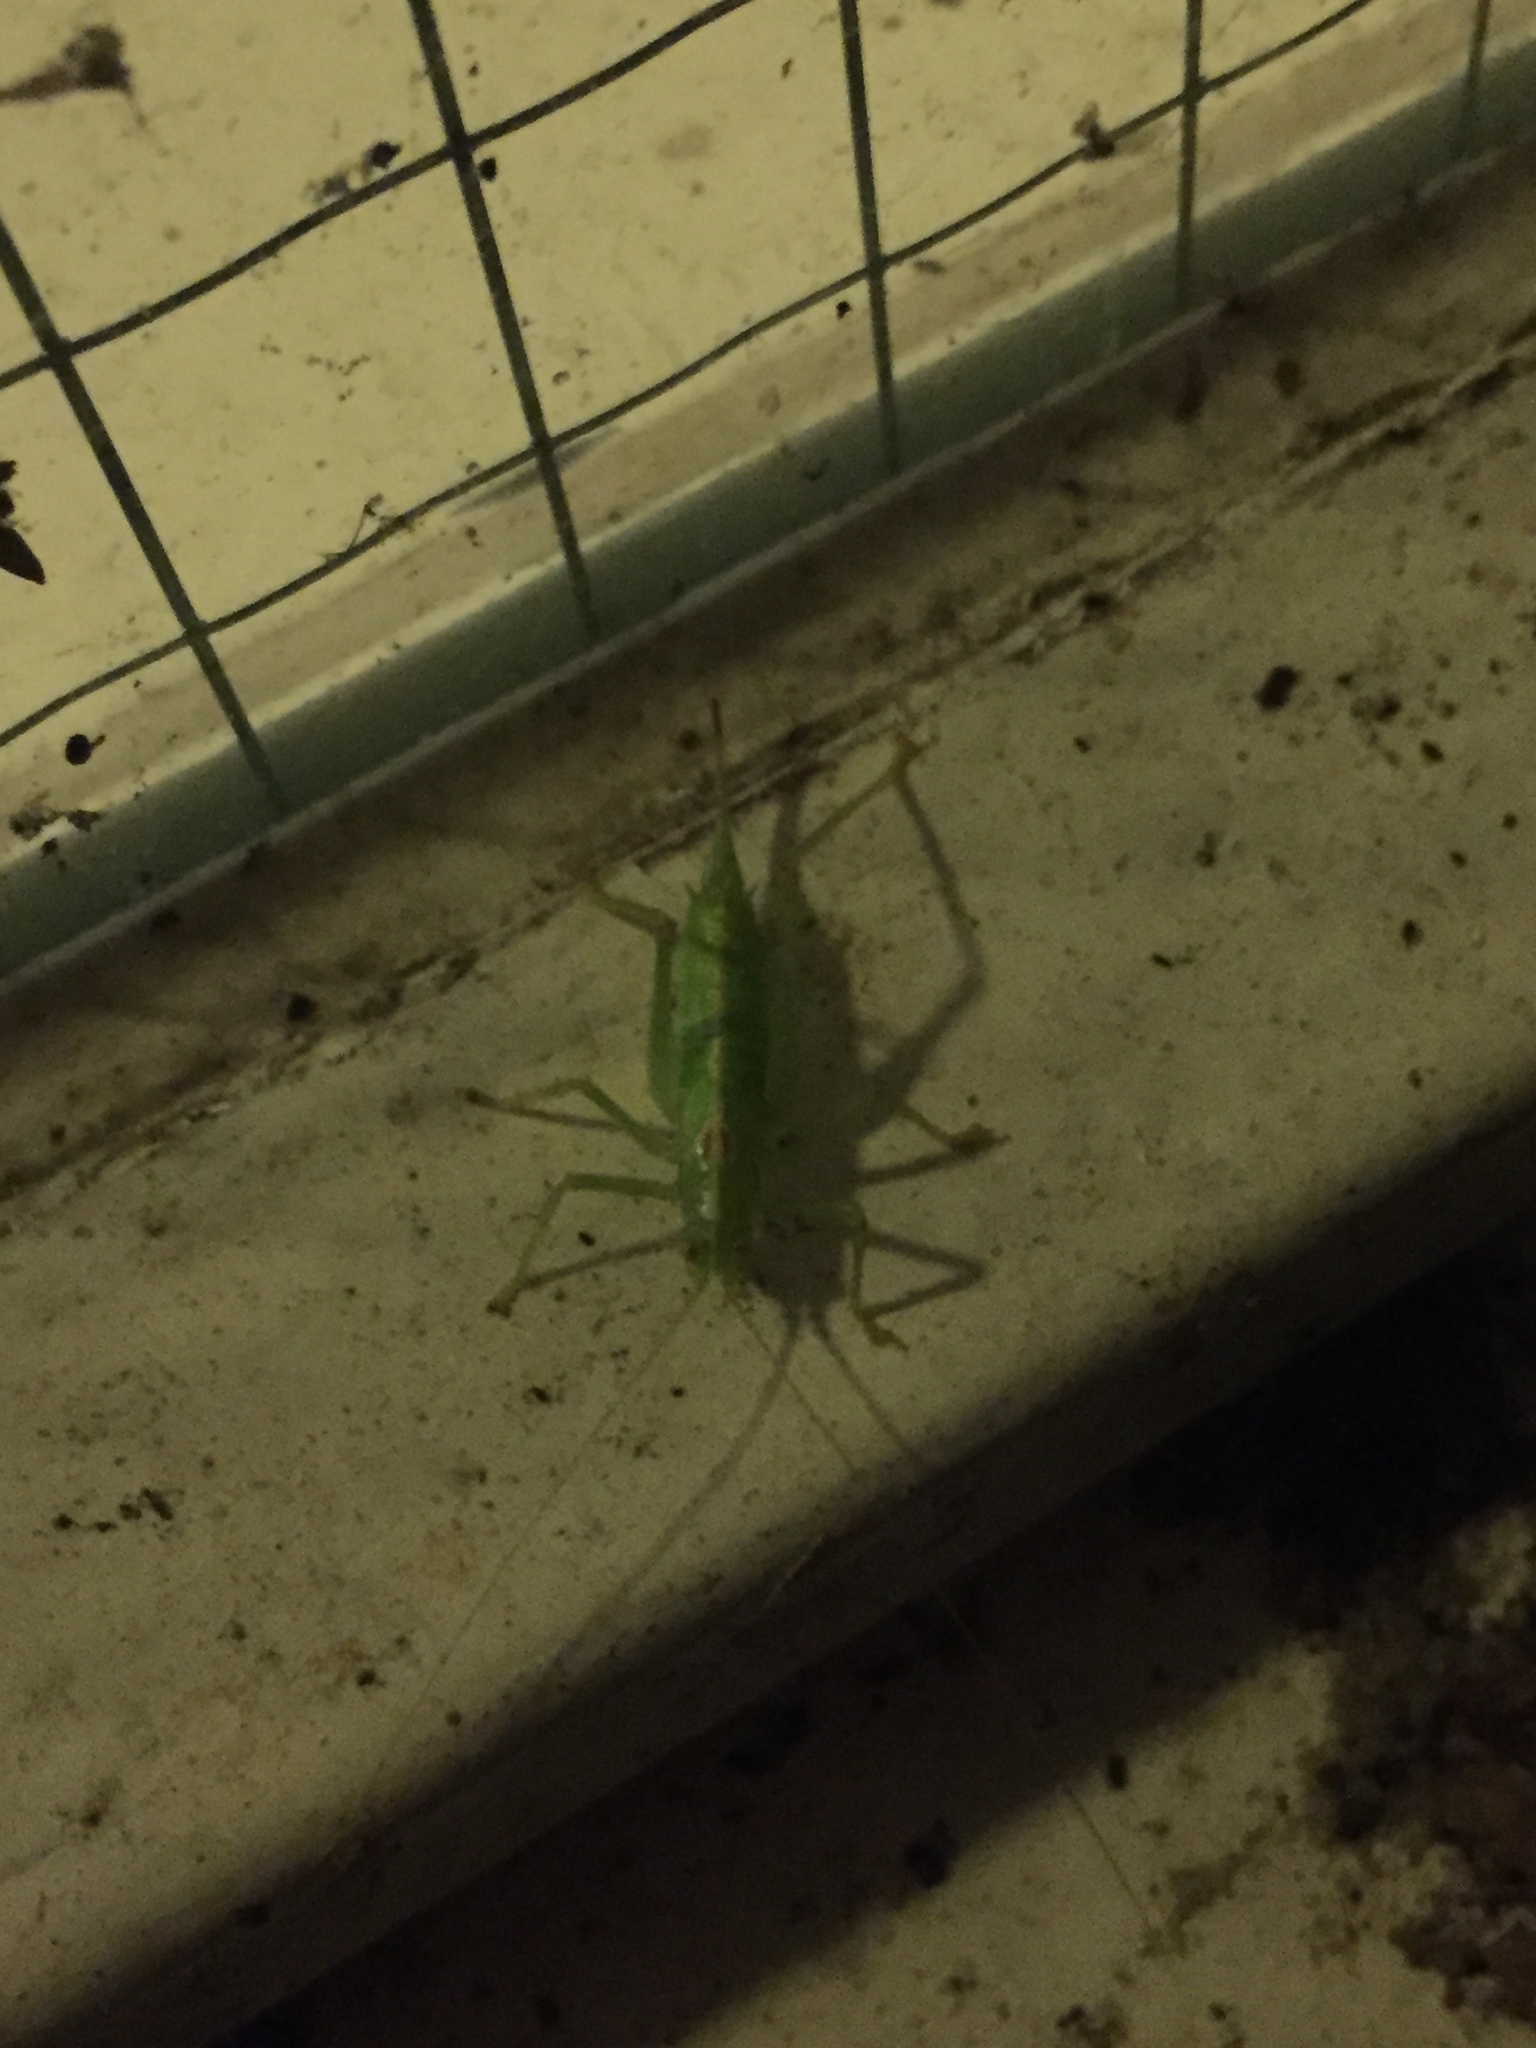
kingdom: Animalia
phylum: Arthropoda
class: Insecta
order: Orthoptera
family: Tettigoniidae
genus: Meconema
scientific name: Meconema meridionale
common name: Southern oak bush-cricket
